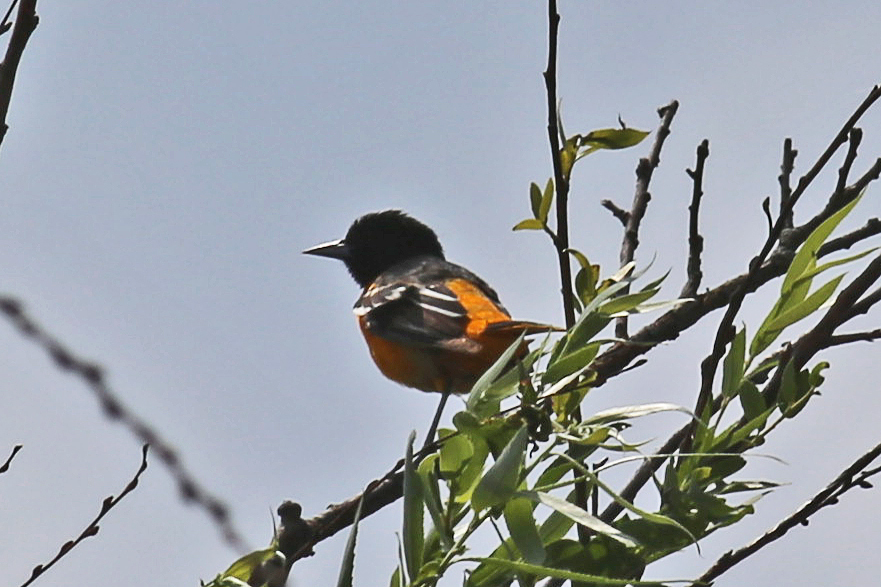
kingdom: Animalia
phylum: Chordata
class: Aves
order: Passeriformes
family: Icteridae
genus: Icterus
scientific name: Icterus galbula
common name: Baltimore oriole
